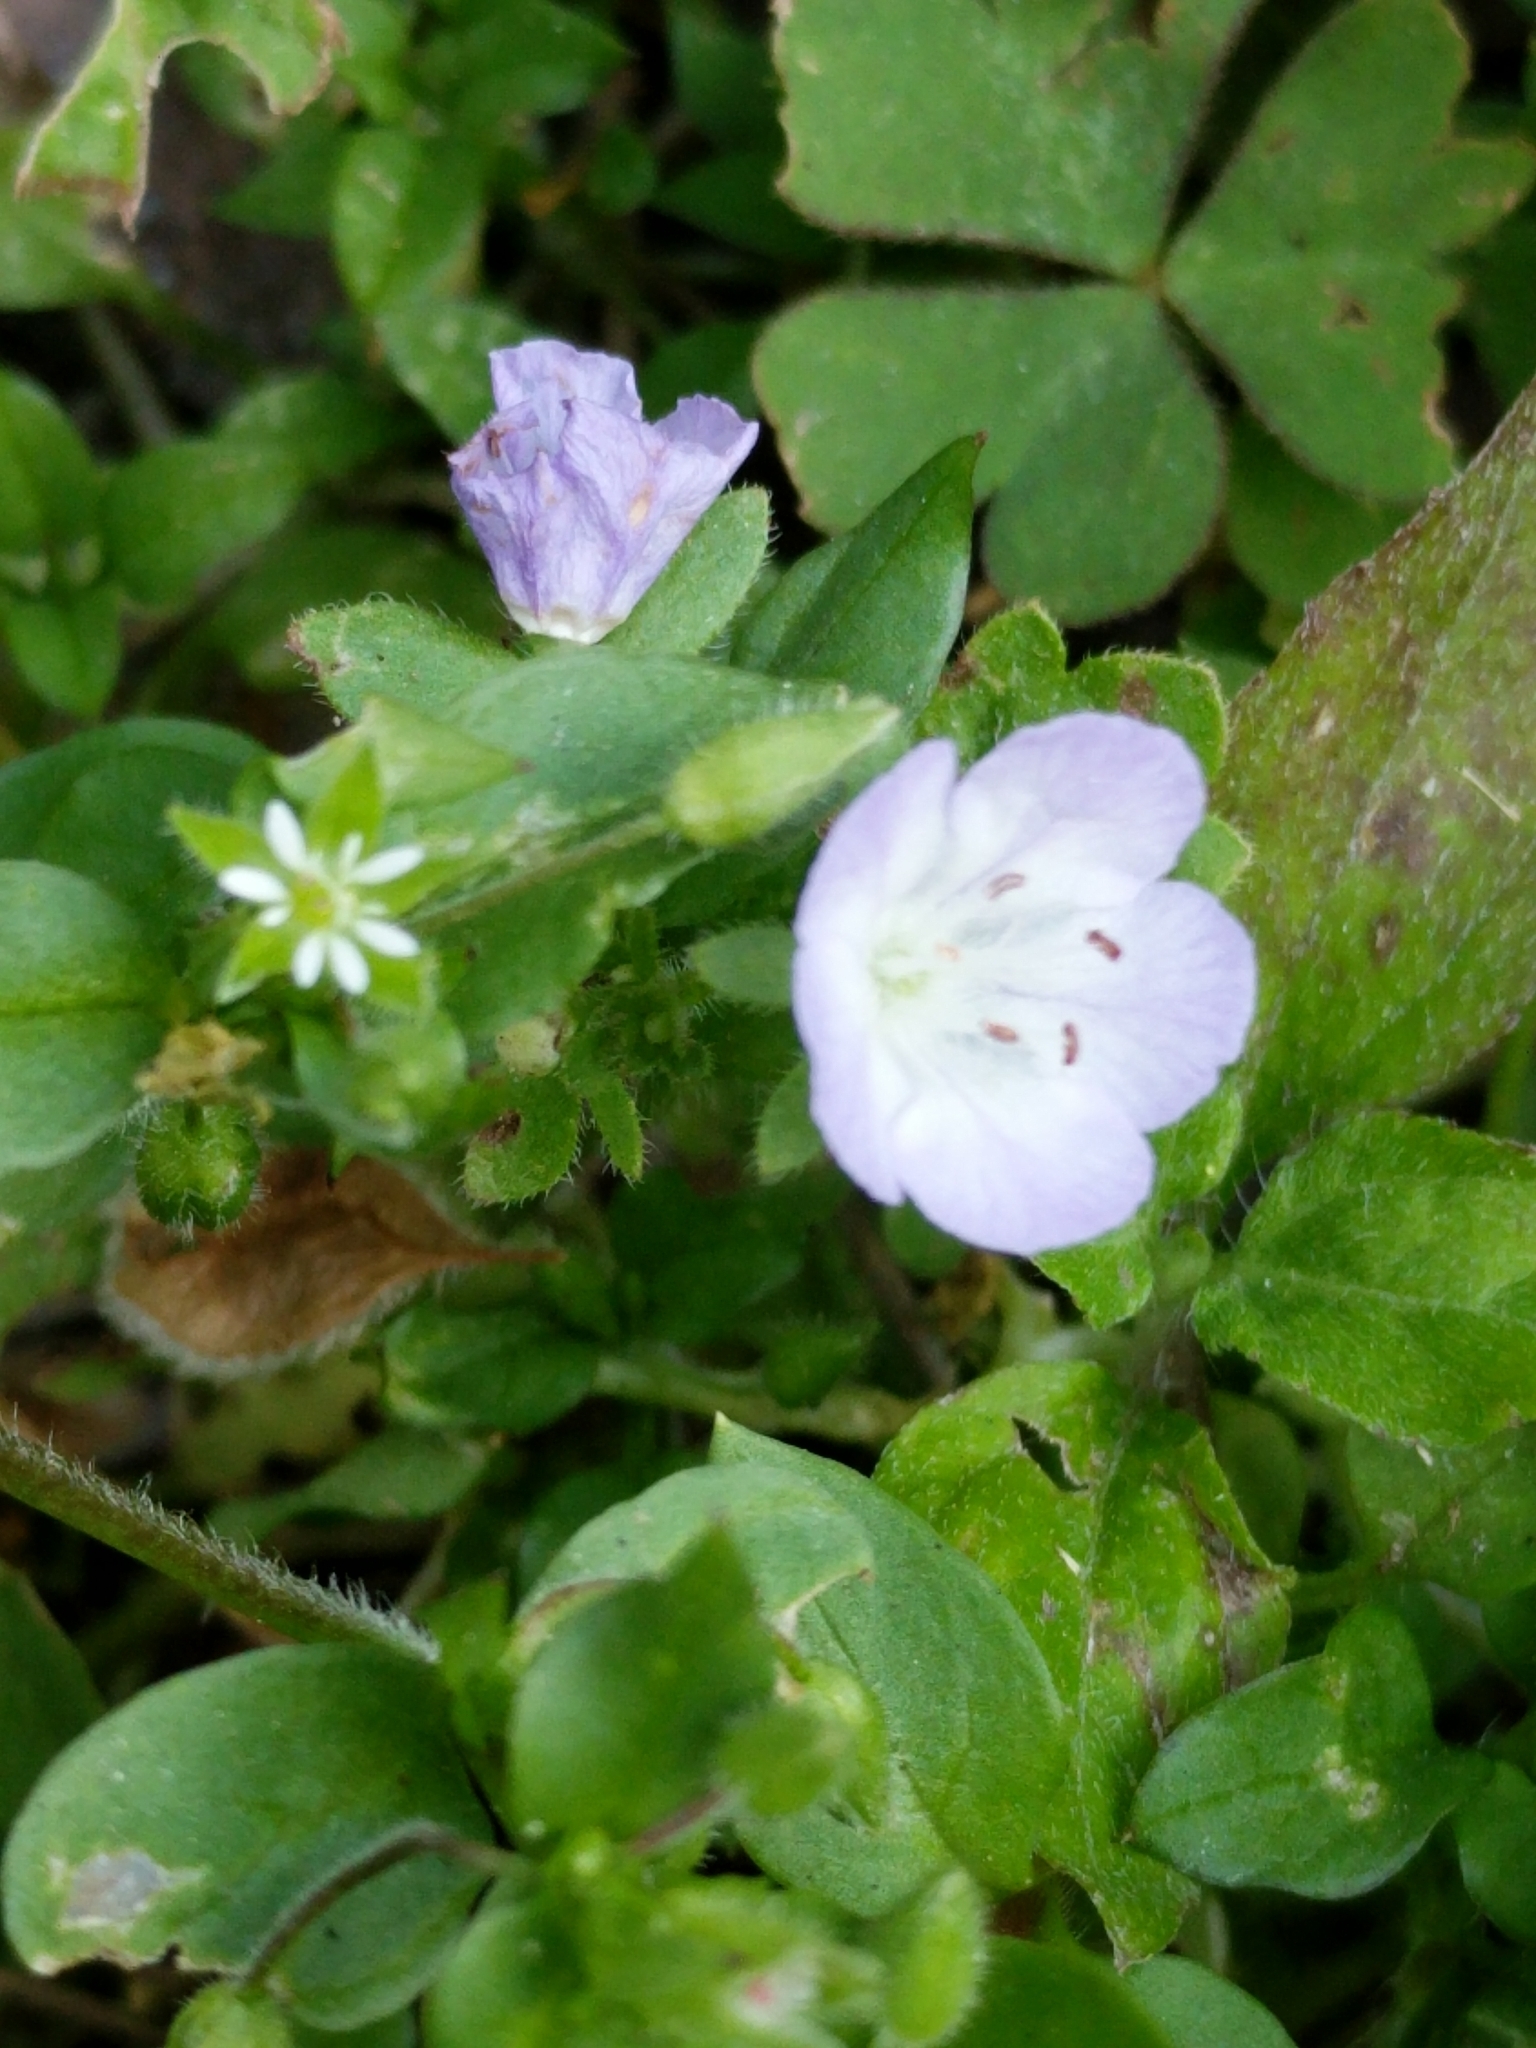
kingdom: Plantae
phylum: Tracheophyta
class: Magnoliopsida
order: Boraginales
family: Hydrophyllaceae
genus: Phacelia
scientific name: Phacelia patuliflora
